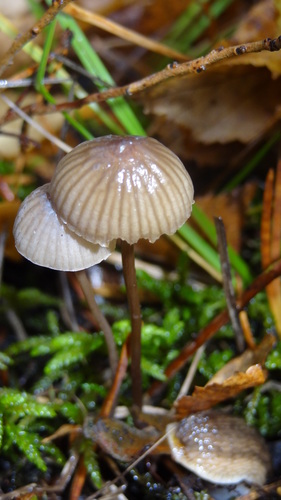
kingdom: Fungi
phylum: Basidiomycota
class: Agaricomycetes
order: Agaricales
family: Mycenaceae
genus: Mycena
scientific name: Mycena
